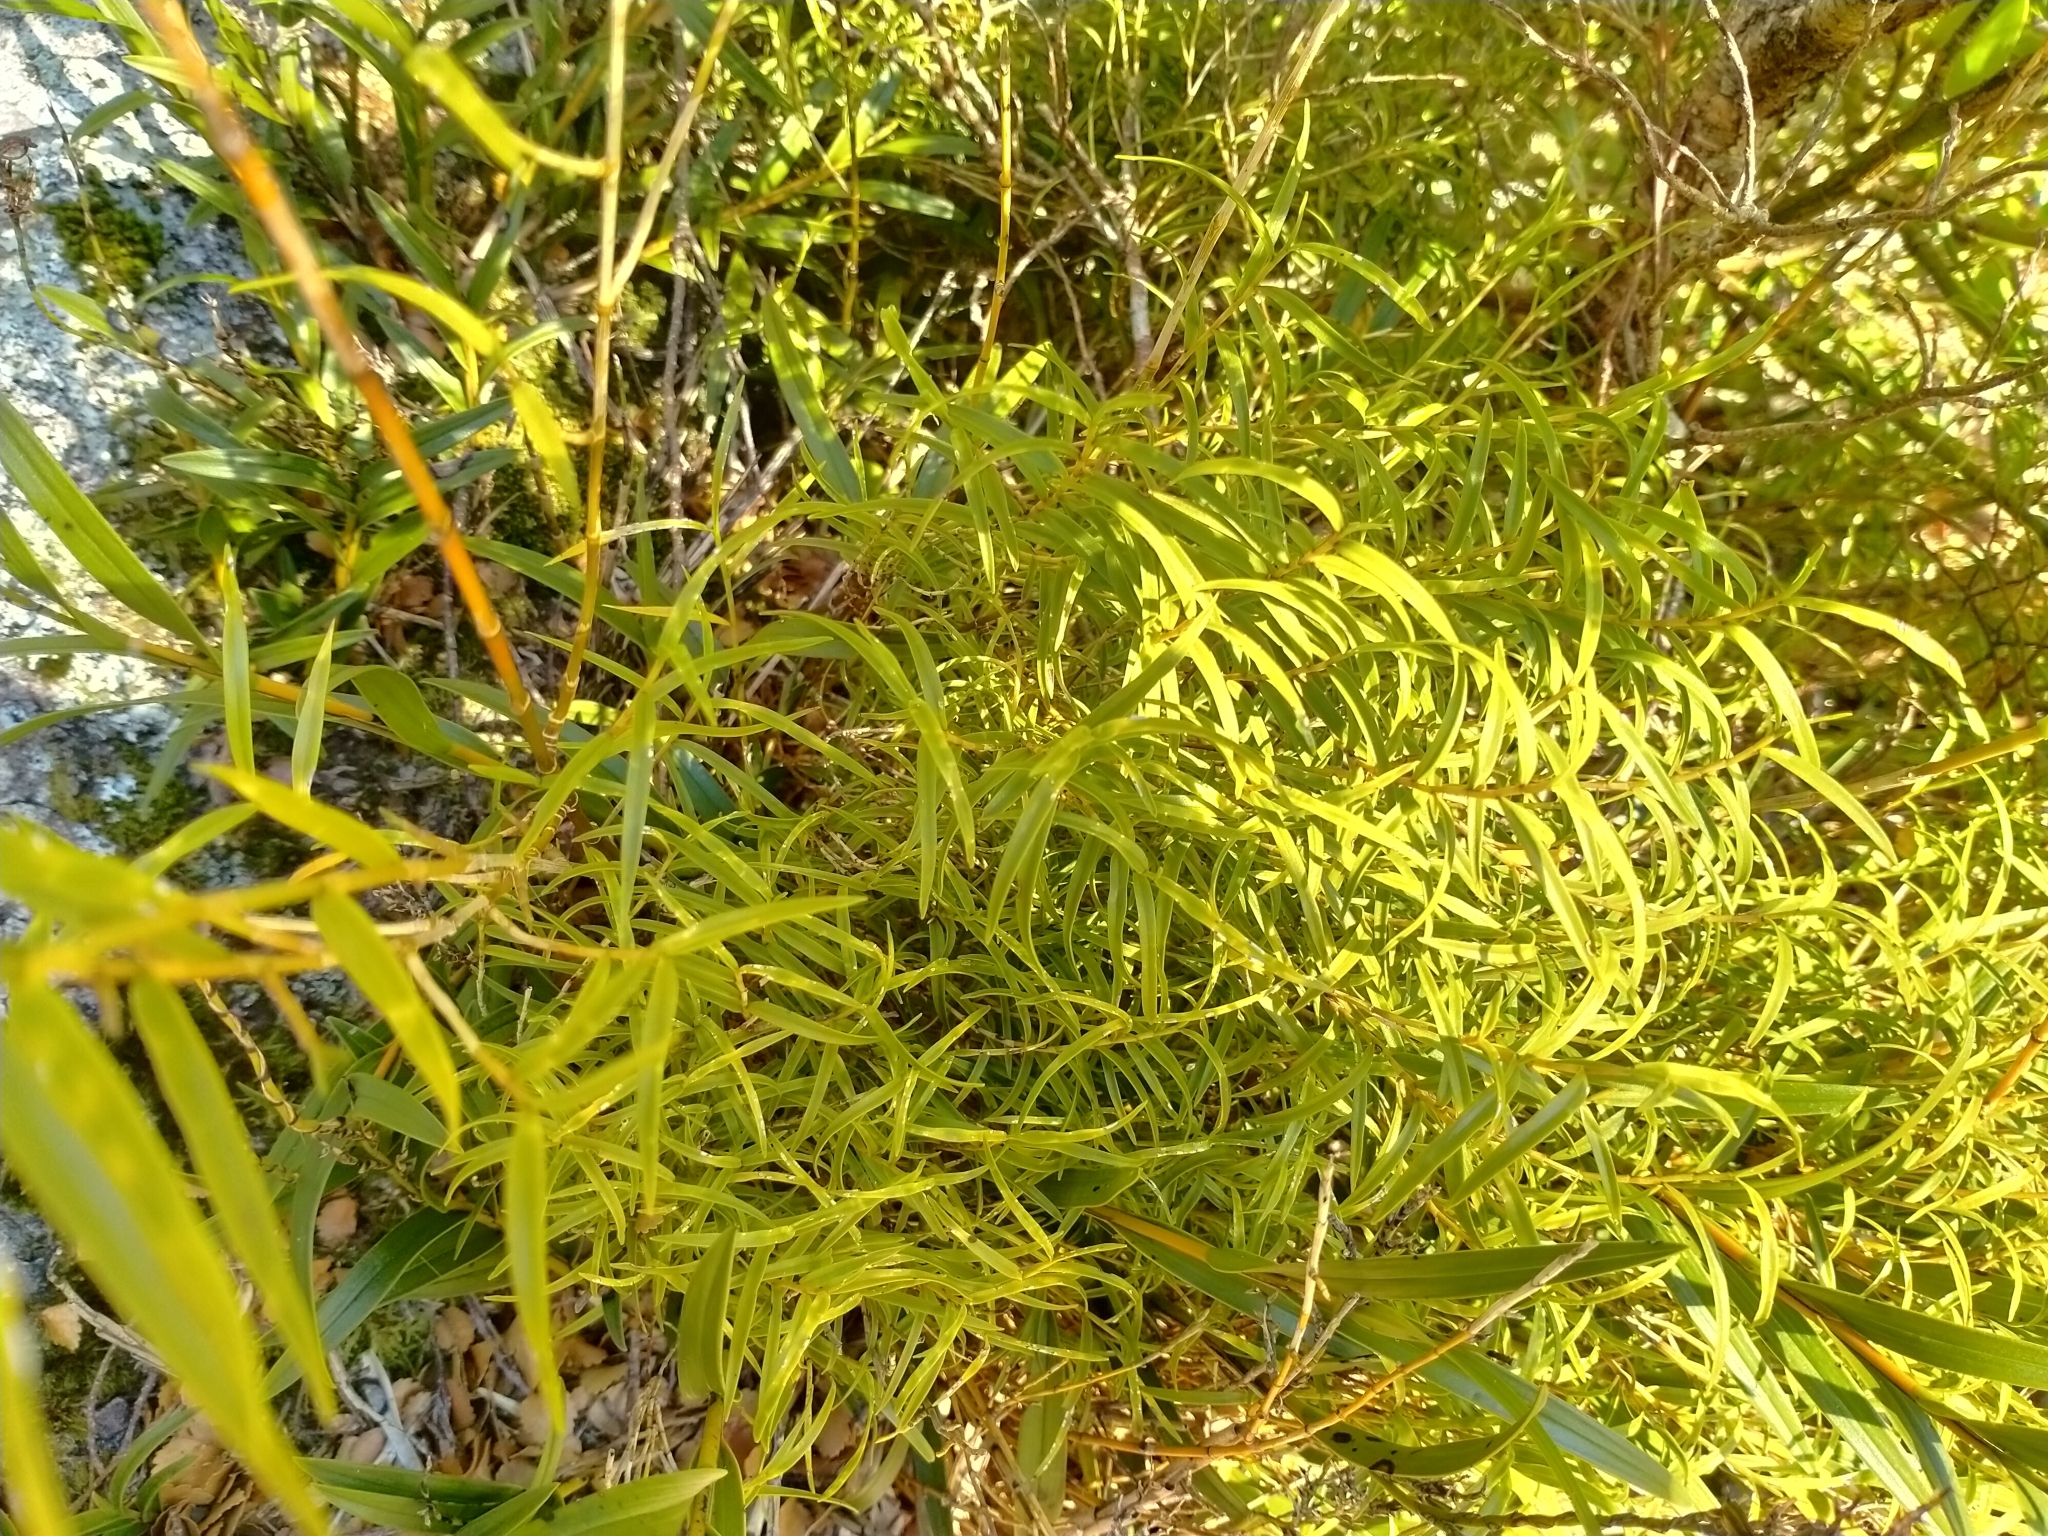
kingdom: Plantae
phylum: Tracheophyta
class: Liliopsida
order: Asparagales
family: Orchidaceae
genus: Dendrobium
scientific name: Dendrobium cunninghamii
